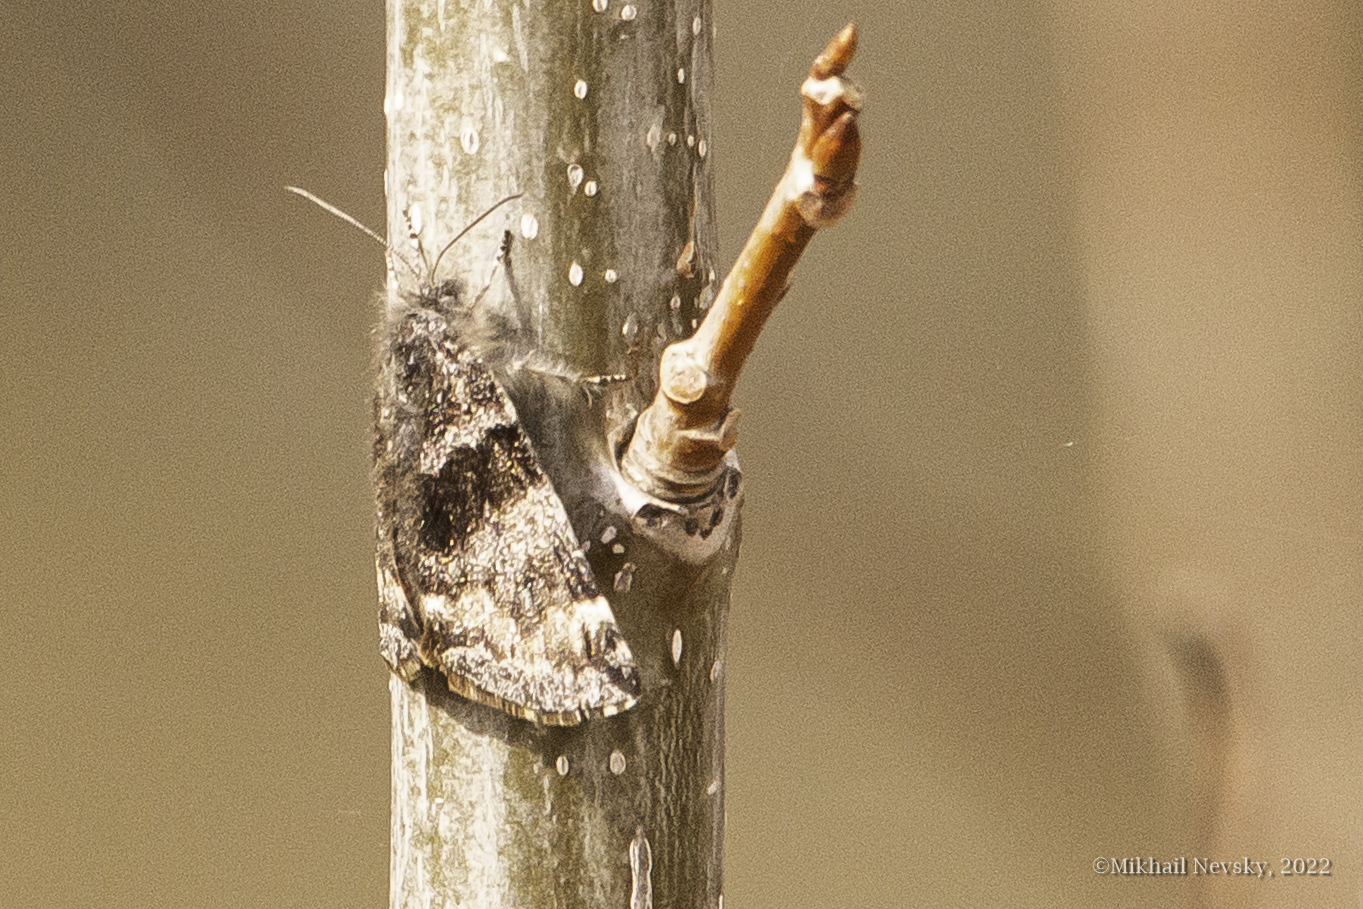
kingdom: Animalia
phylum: Arthropoda
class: Insecta
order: Lepidoptera
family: Geometridae
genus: Archiearis
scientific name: Archiearis parthenias
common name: Orange underwing
